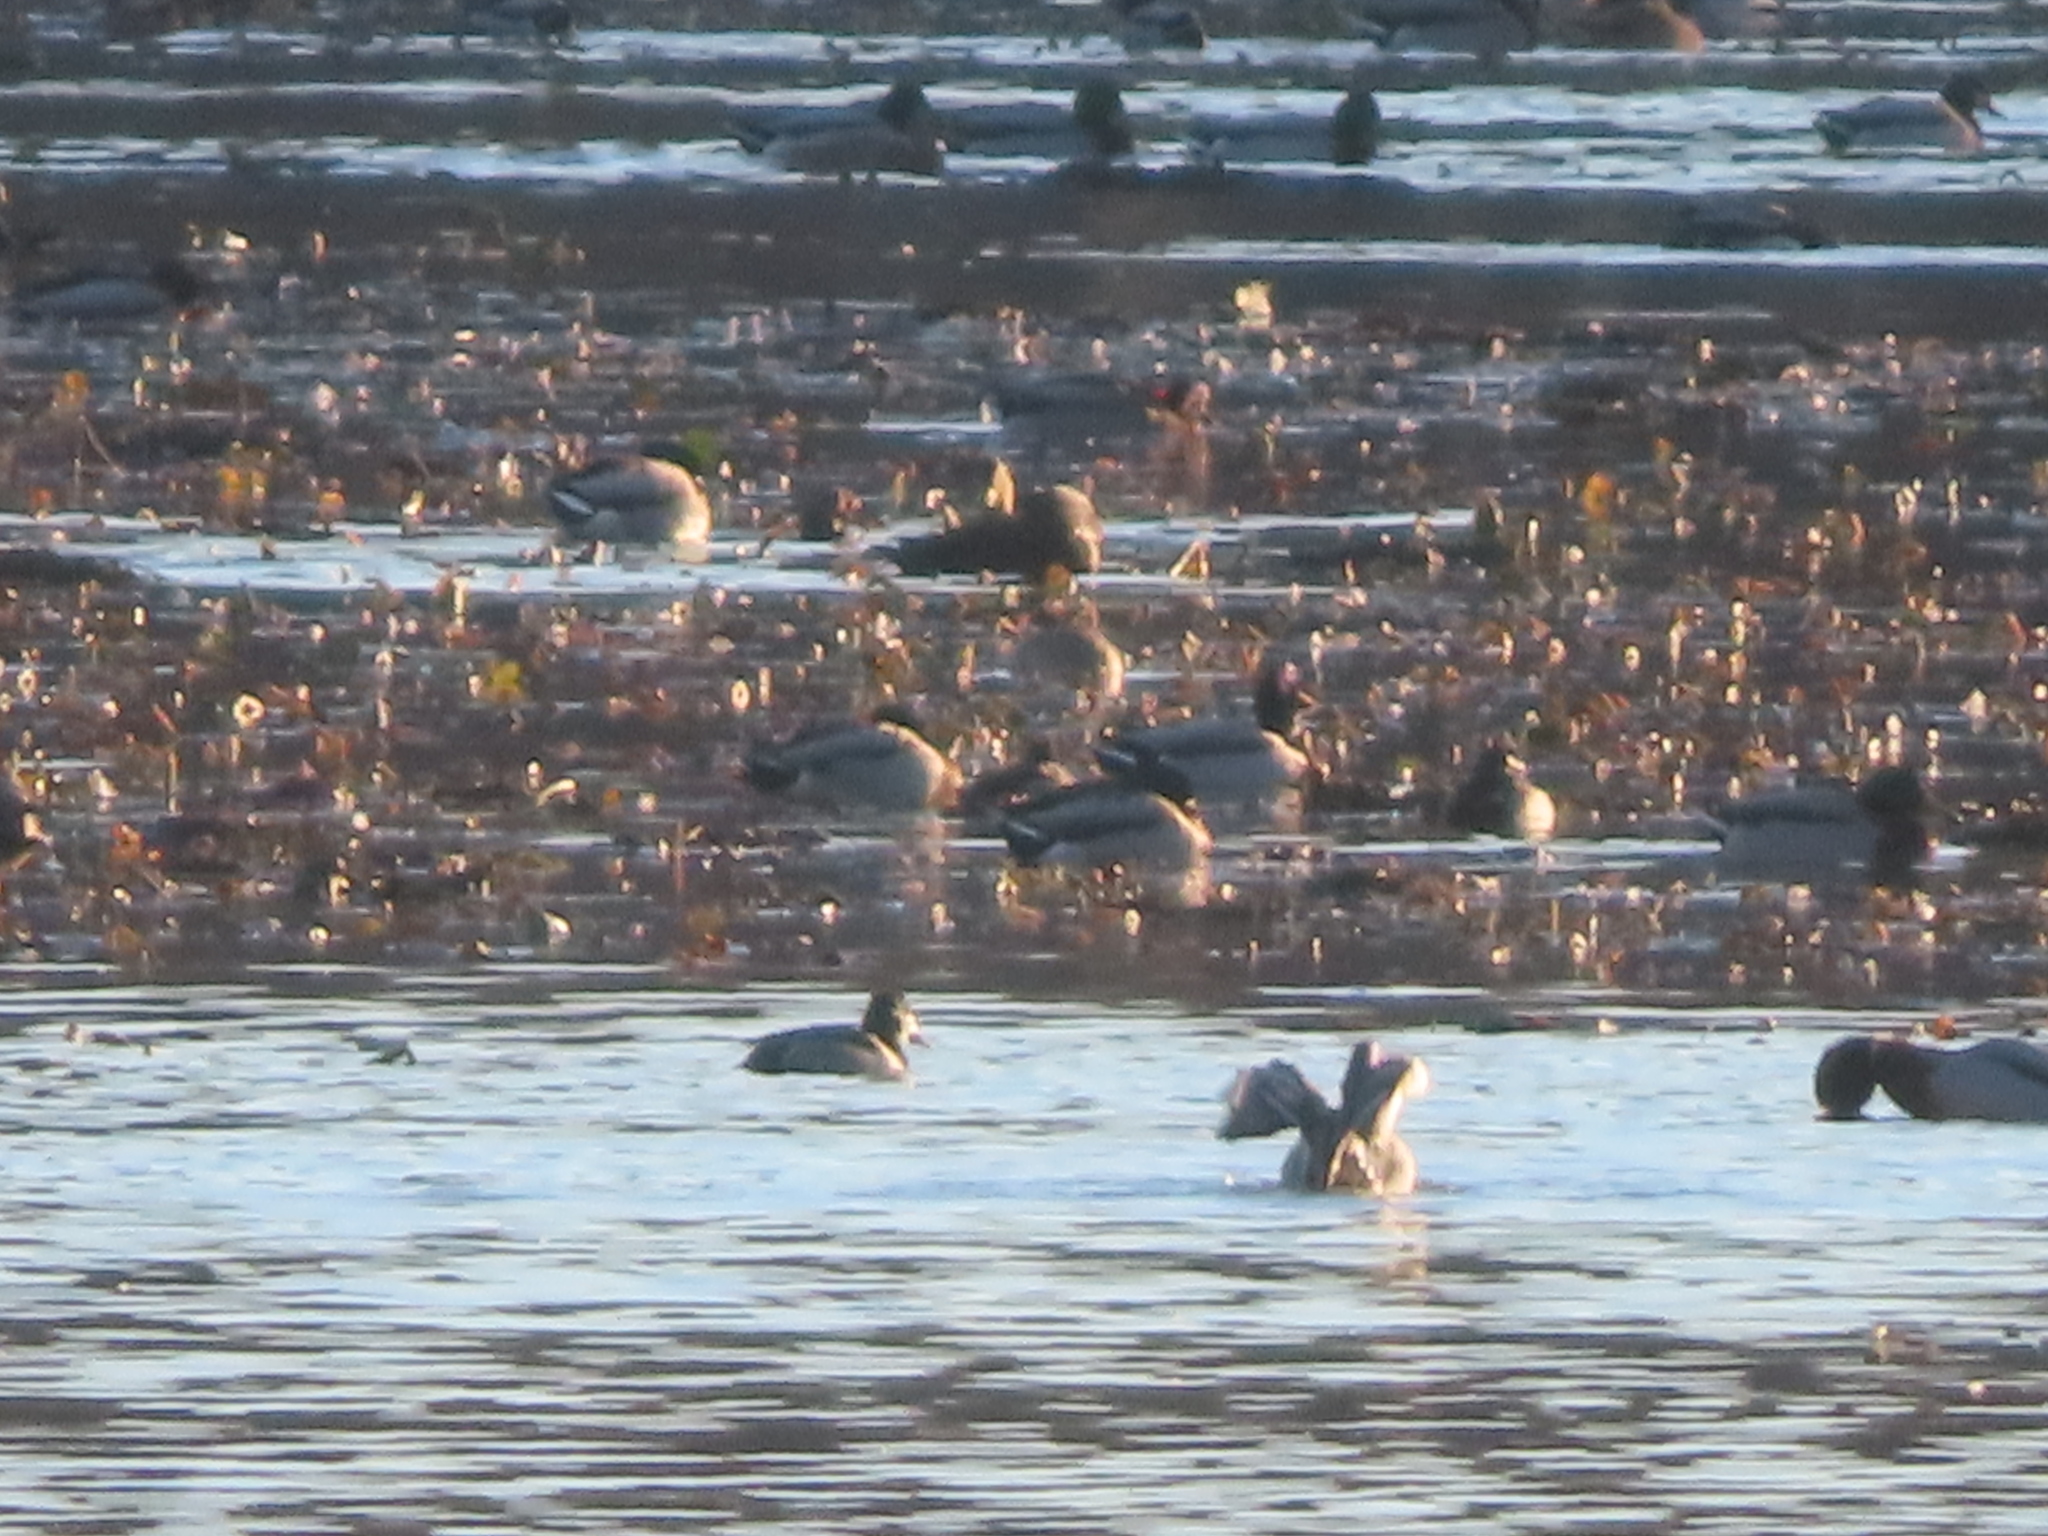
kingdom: Animalia
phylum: Chordata
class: Aves
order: Anseriformes
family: Anatidae
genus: Aythya
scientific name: Aythya collaris
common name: Ring-necked duck
